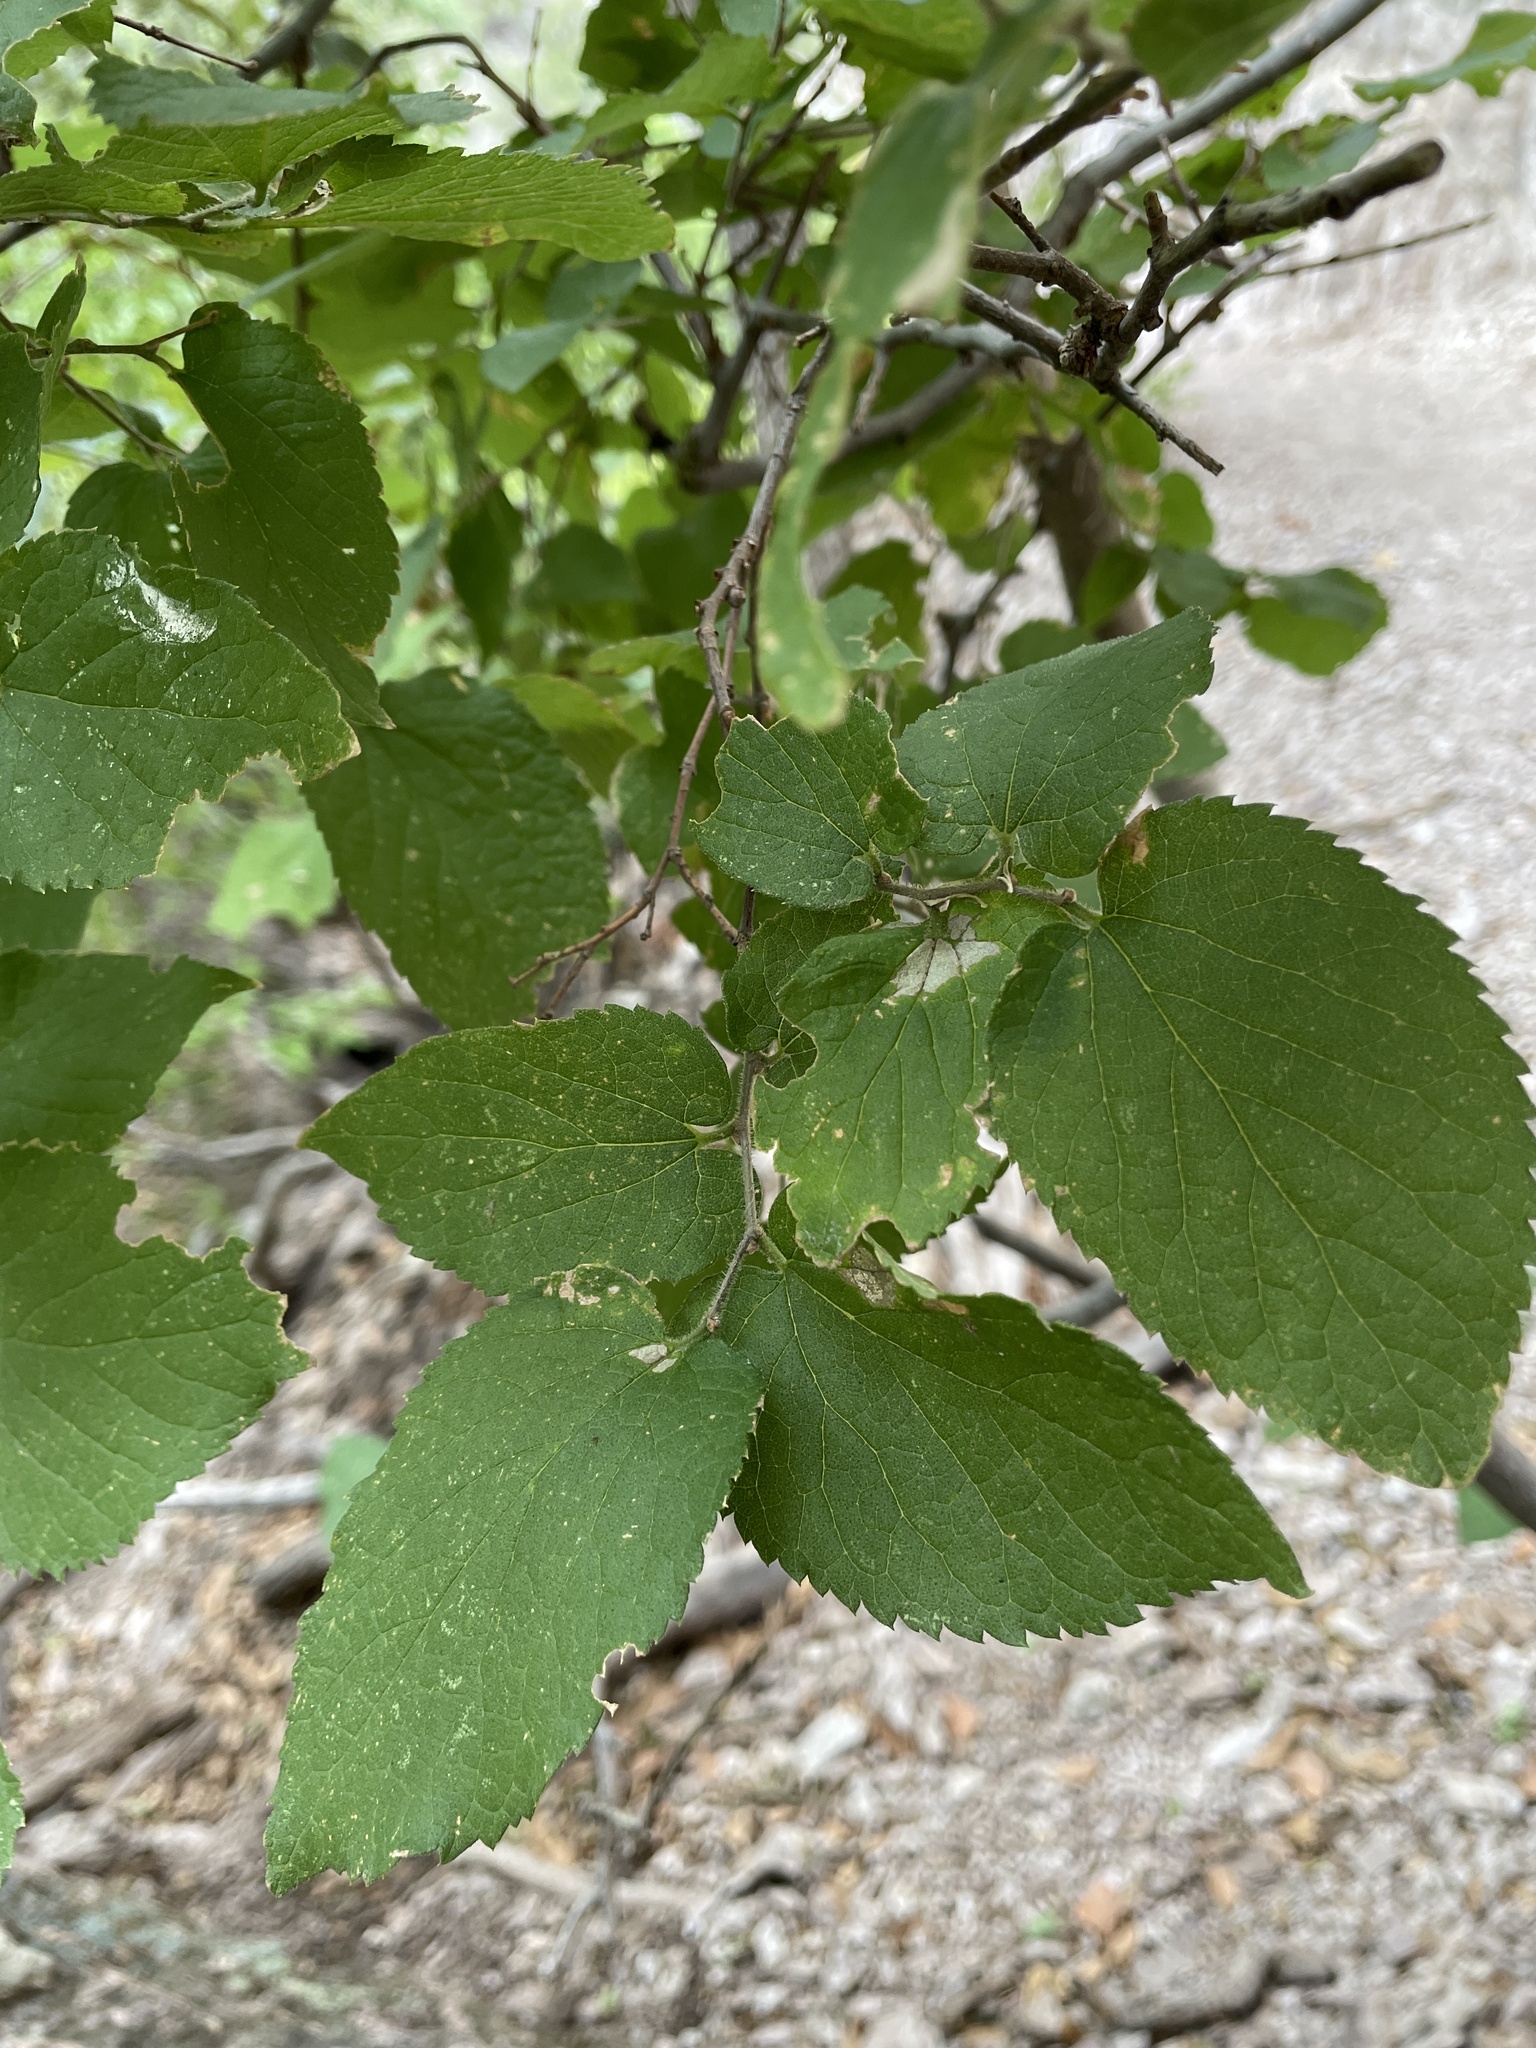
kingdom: Plantae
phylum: Tracheophyta
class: Magnoliopsida
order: Rosales
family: Cannabaceae
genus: Celtis
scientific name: Celtis reticulata
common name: Netleaf hackberry
